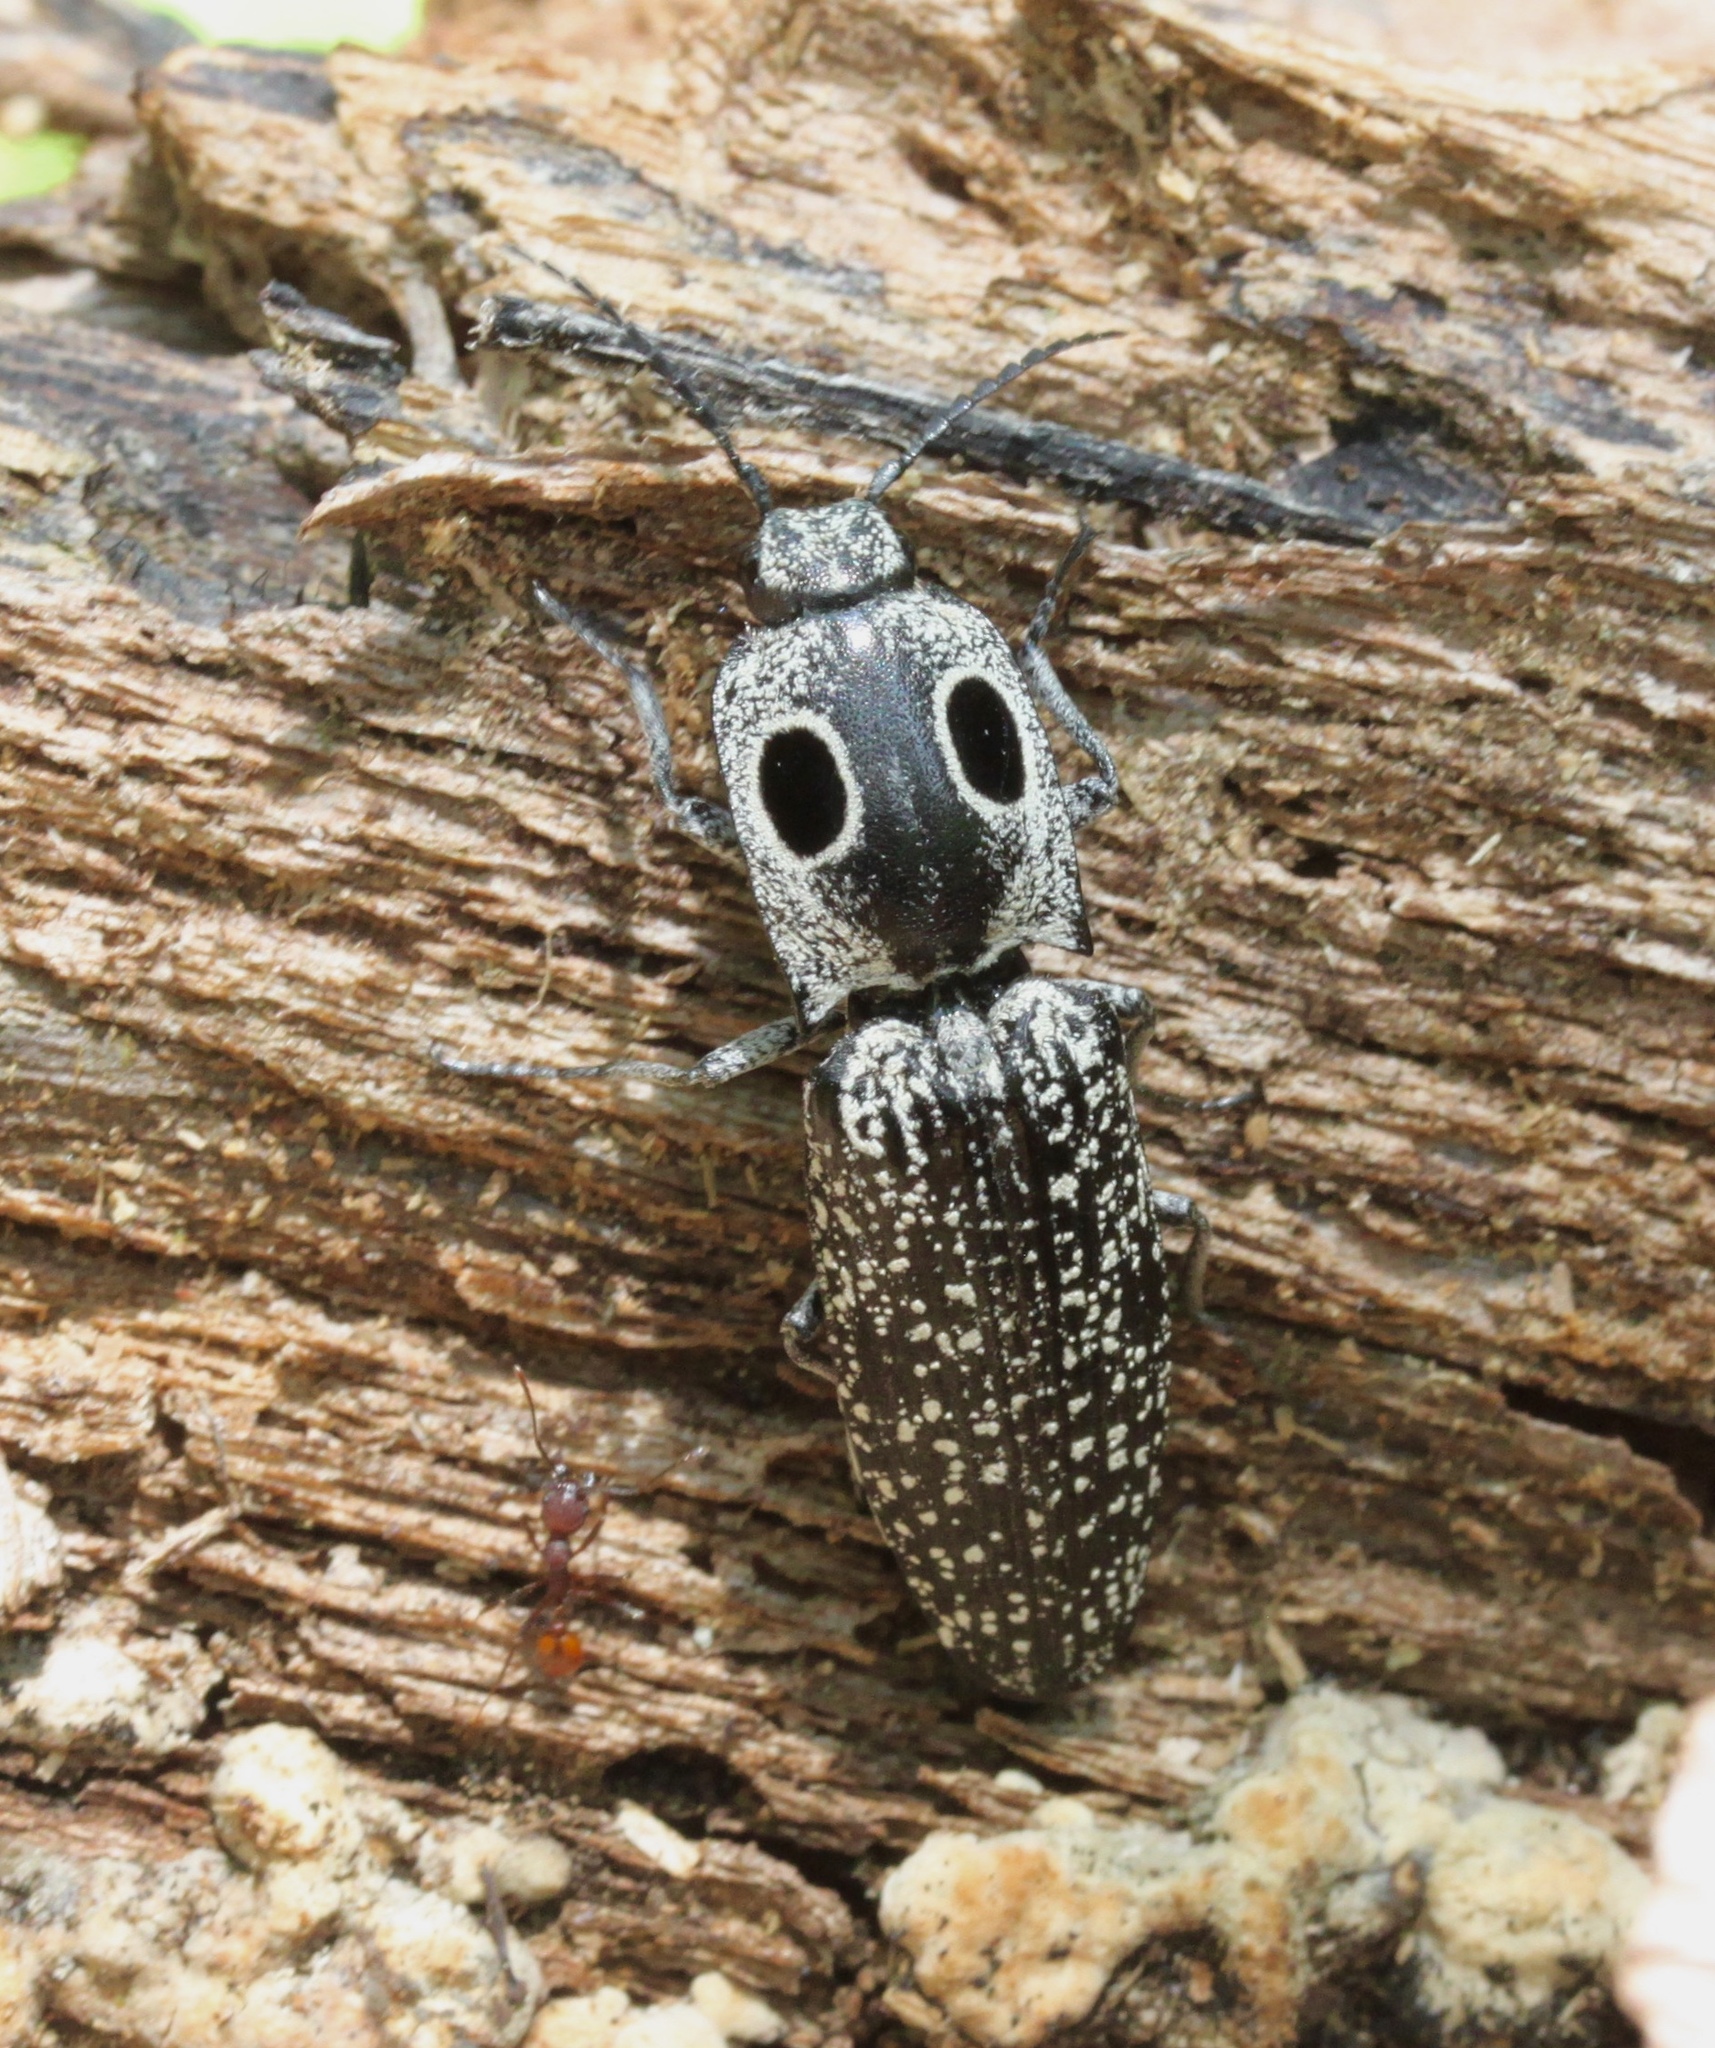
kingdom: Animalia
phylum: Arthropoda
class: Insecta
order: Coleoptera
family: Elateridae
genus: Alaus
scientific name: Alaus oculatus
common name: Eastern eyed click beetle
